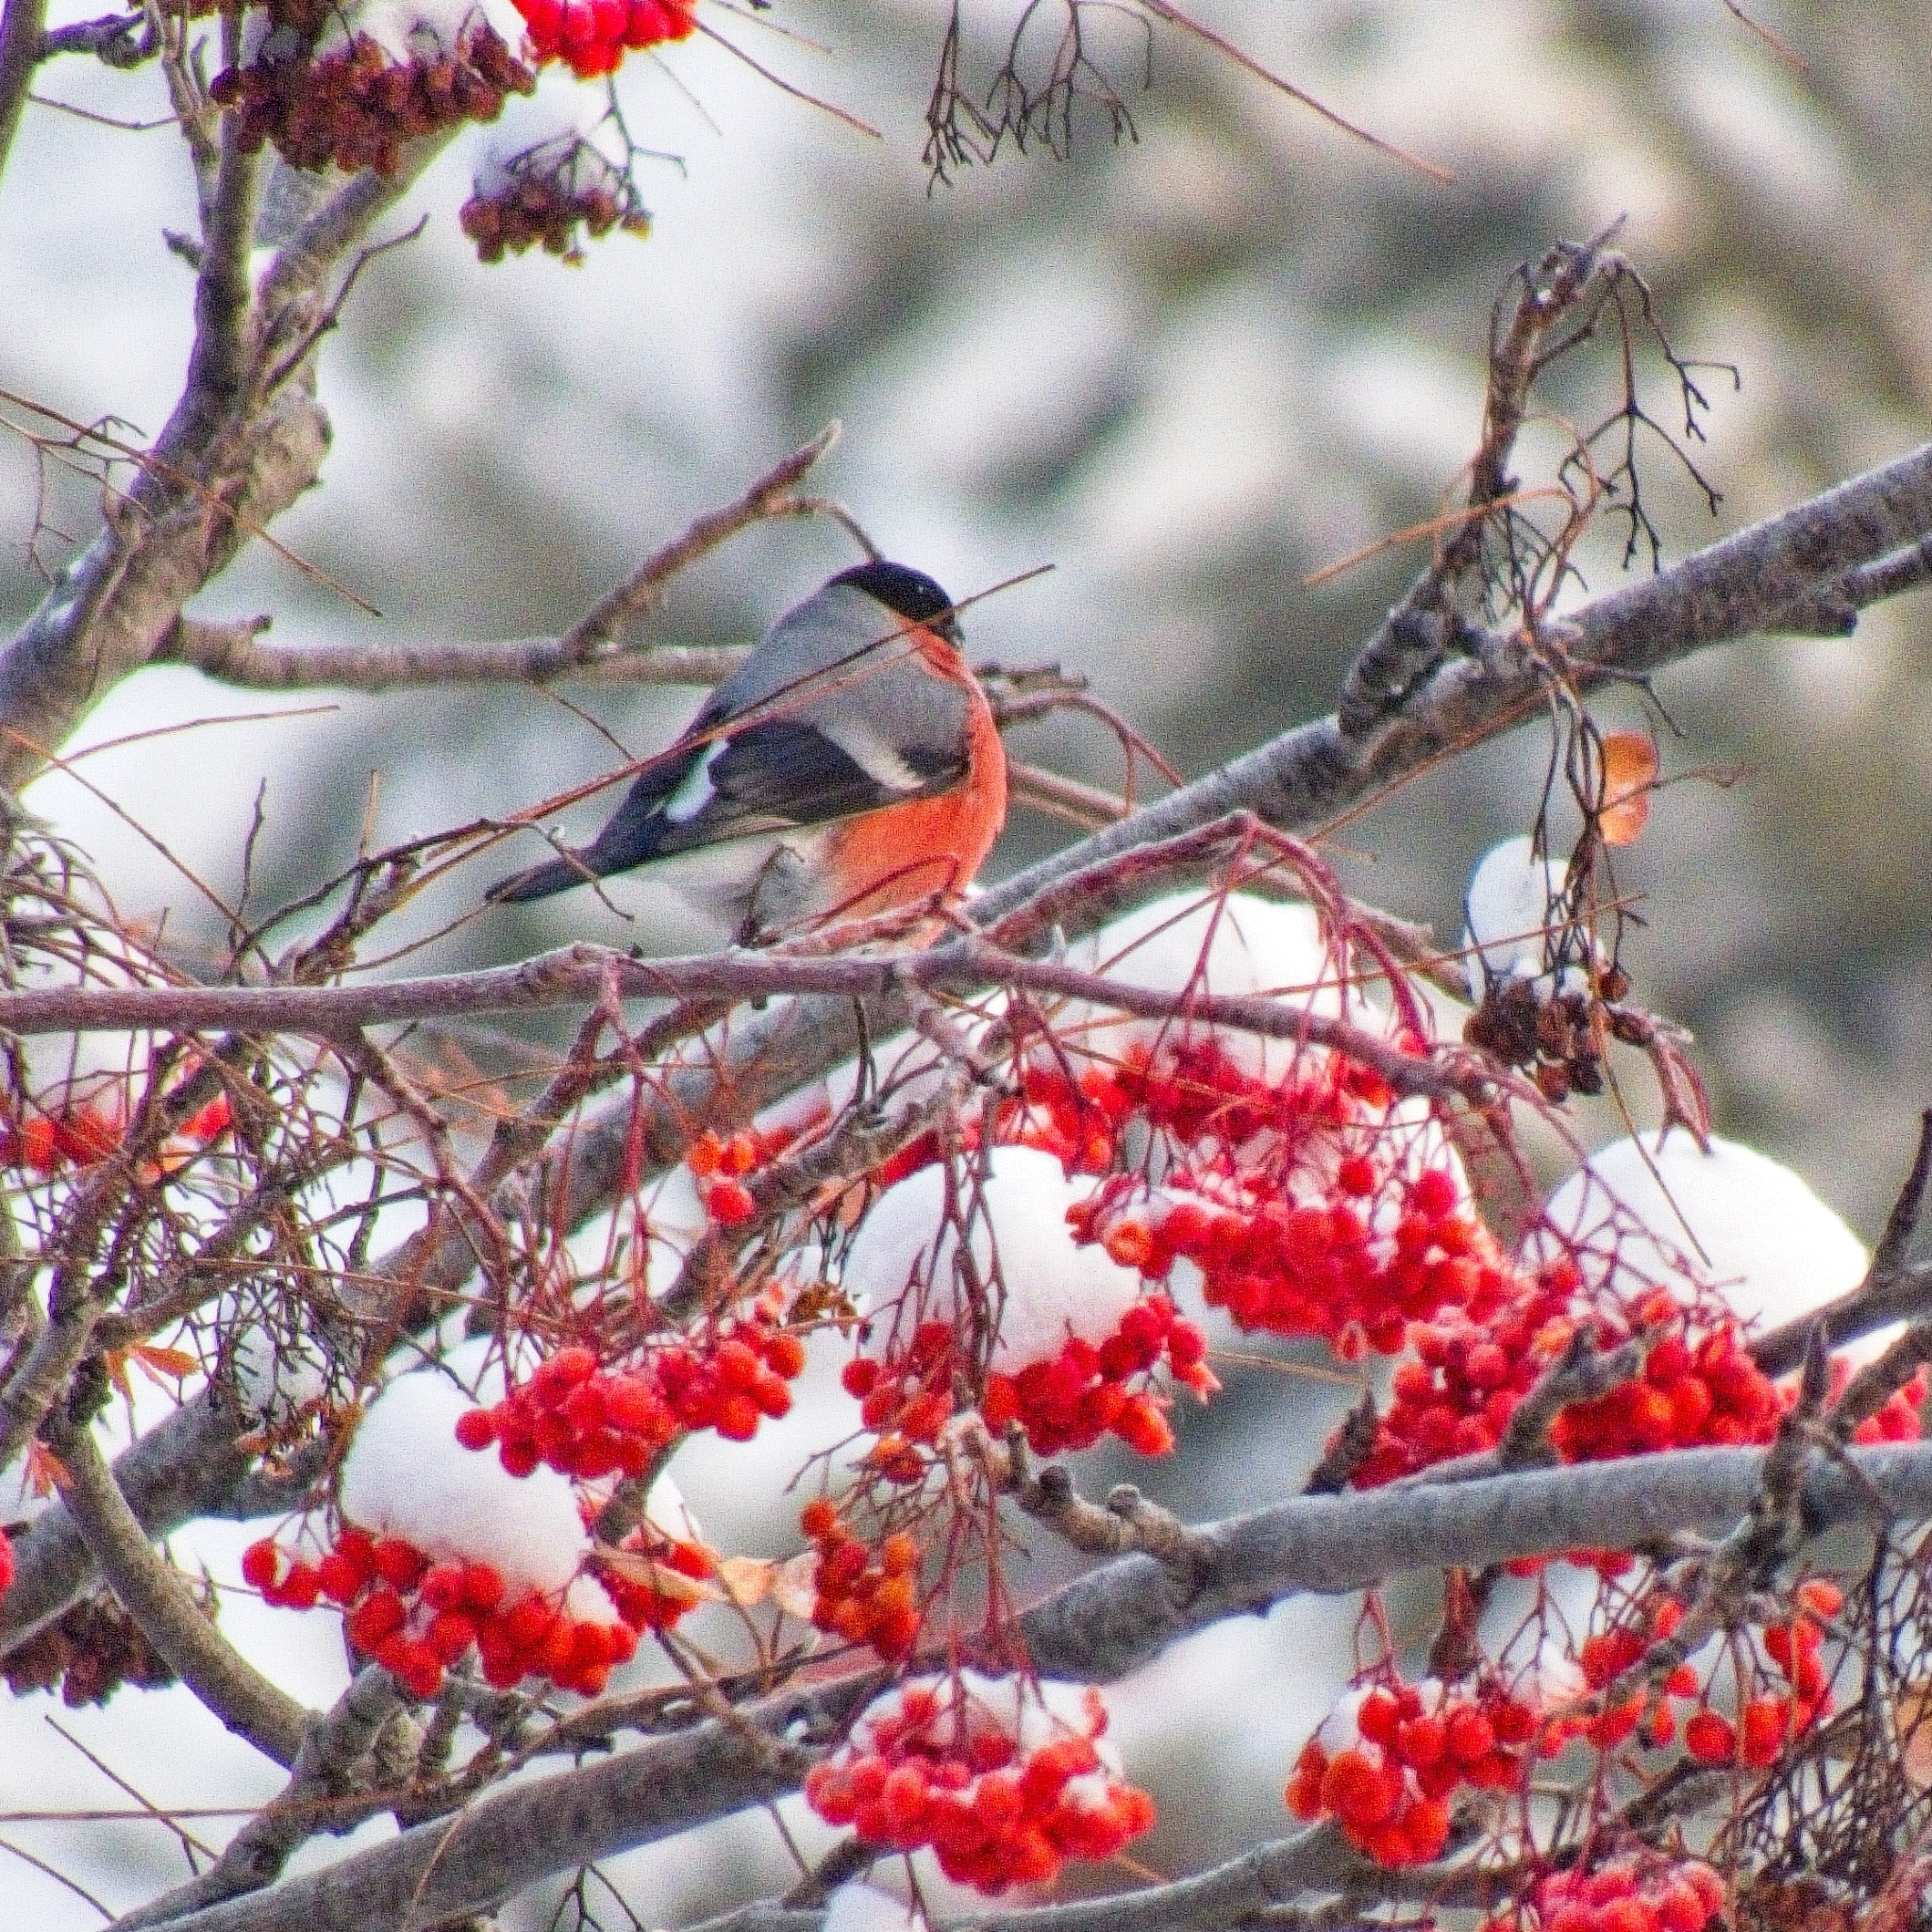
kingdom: Animalia
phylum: Chordata
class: Aves
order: Passeriformes
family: Fringillidae
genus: Pyrrhula
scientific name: Pyrrhula pyrrhula
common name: Eurasian bullfinch
